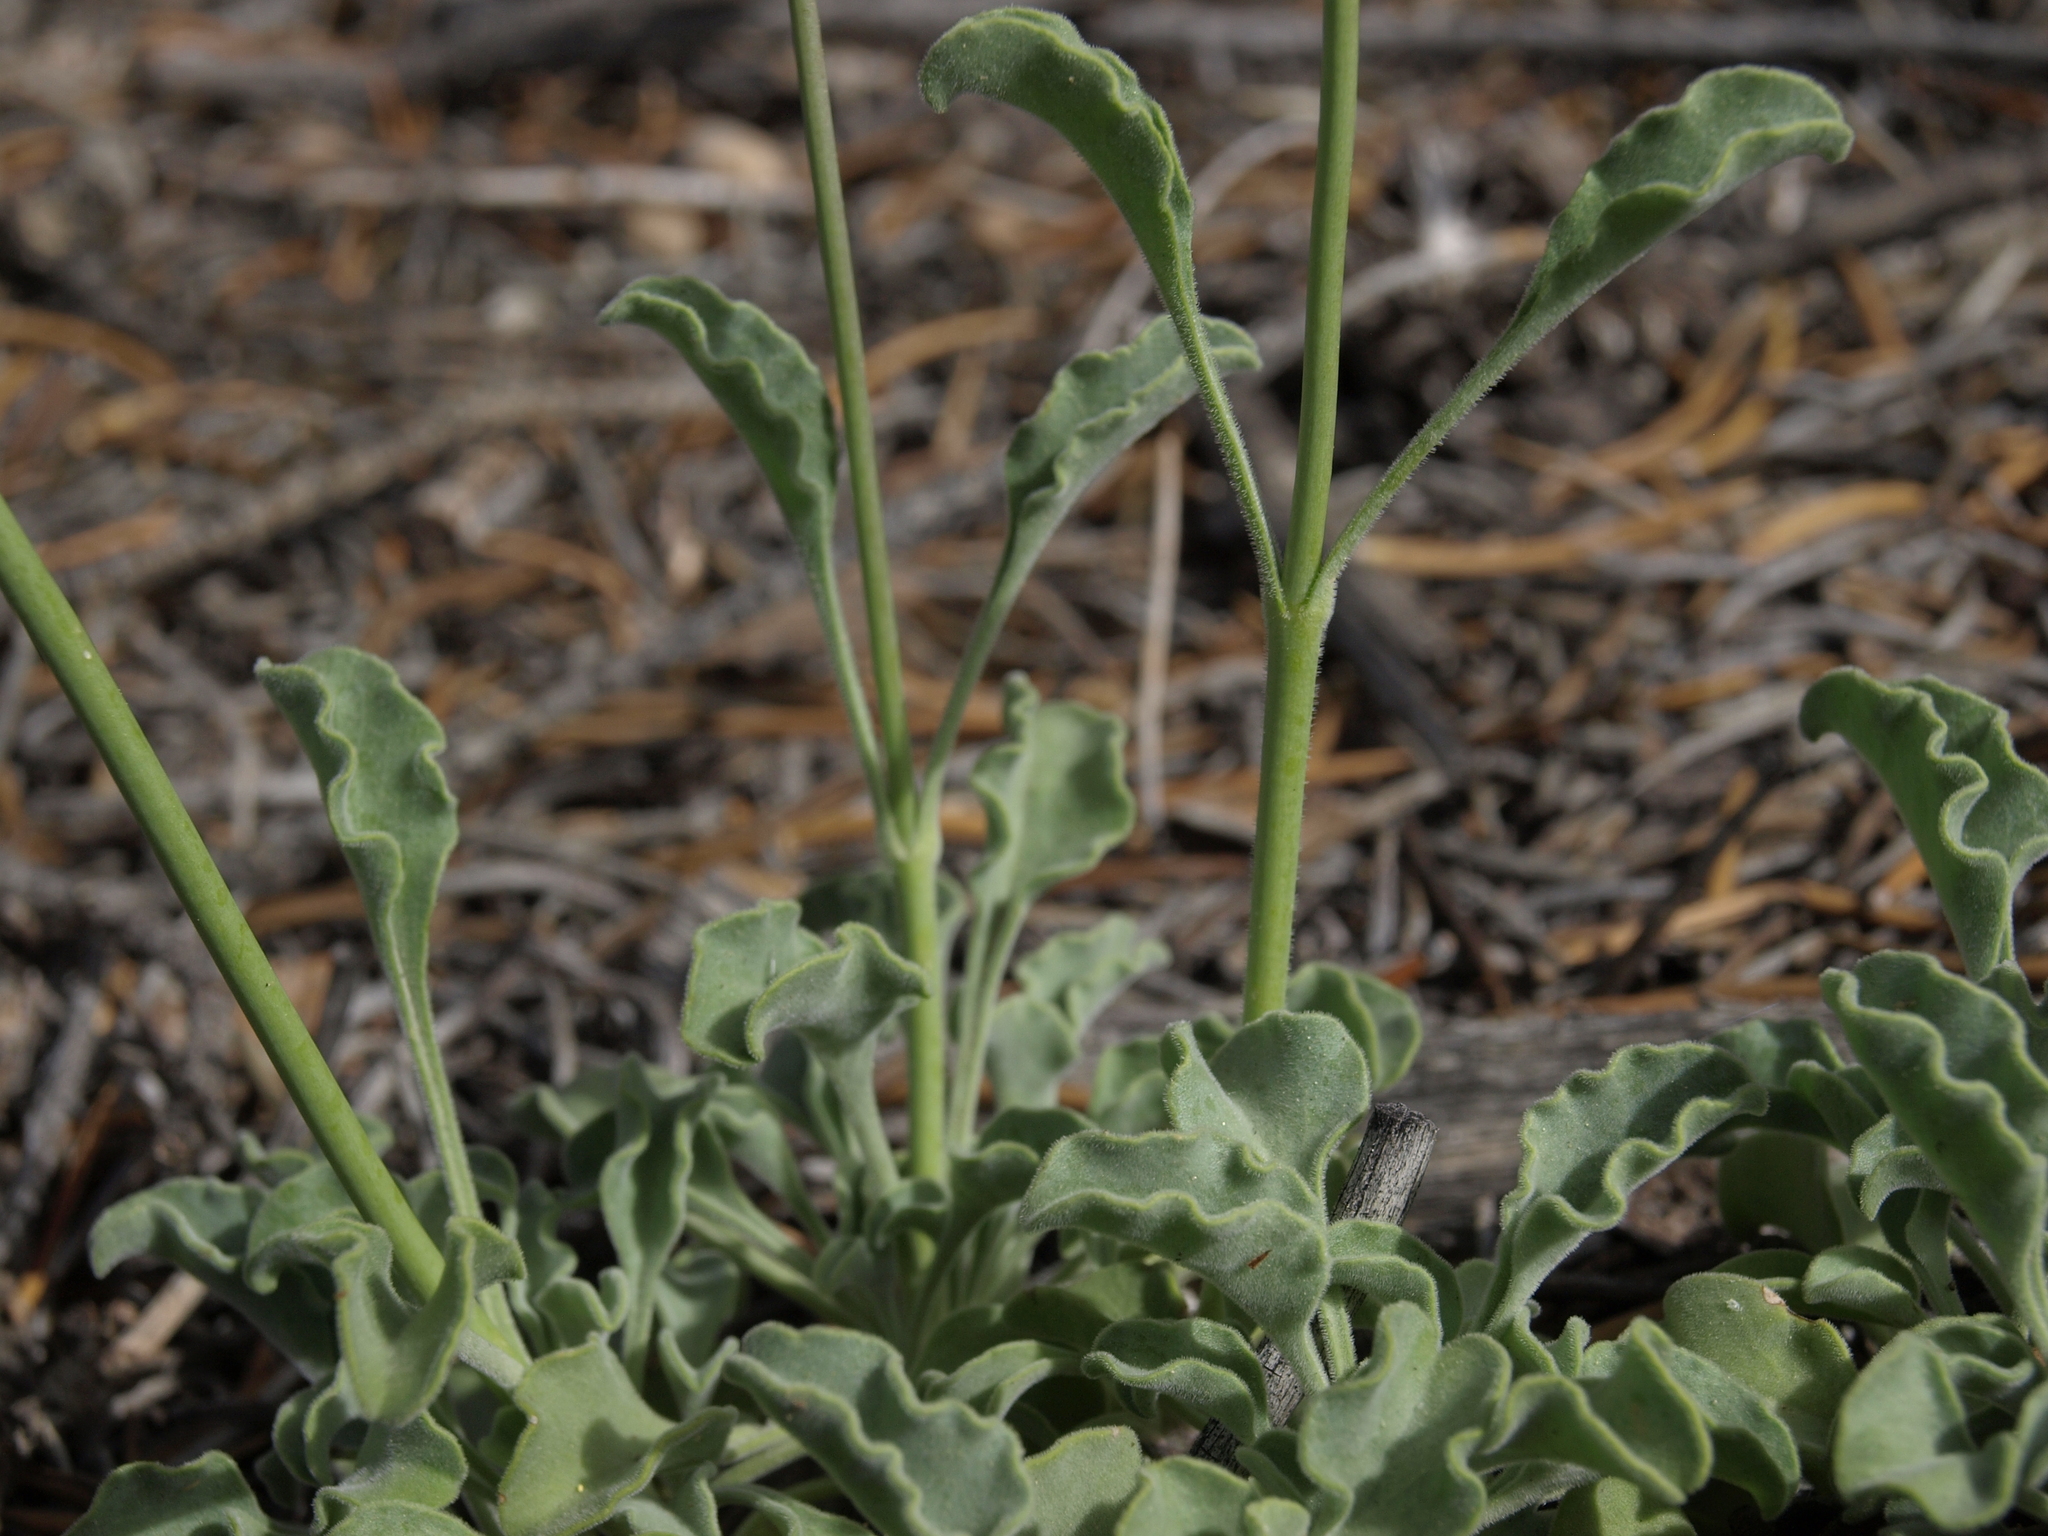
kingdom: Plantae
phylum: Tracheophyta
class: Magnoliopsida
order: Lamiales
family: Plantaginaceae
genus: Penstemon
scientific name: Penstemon scapoides
